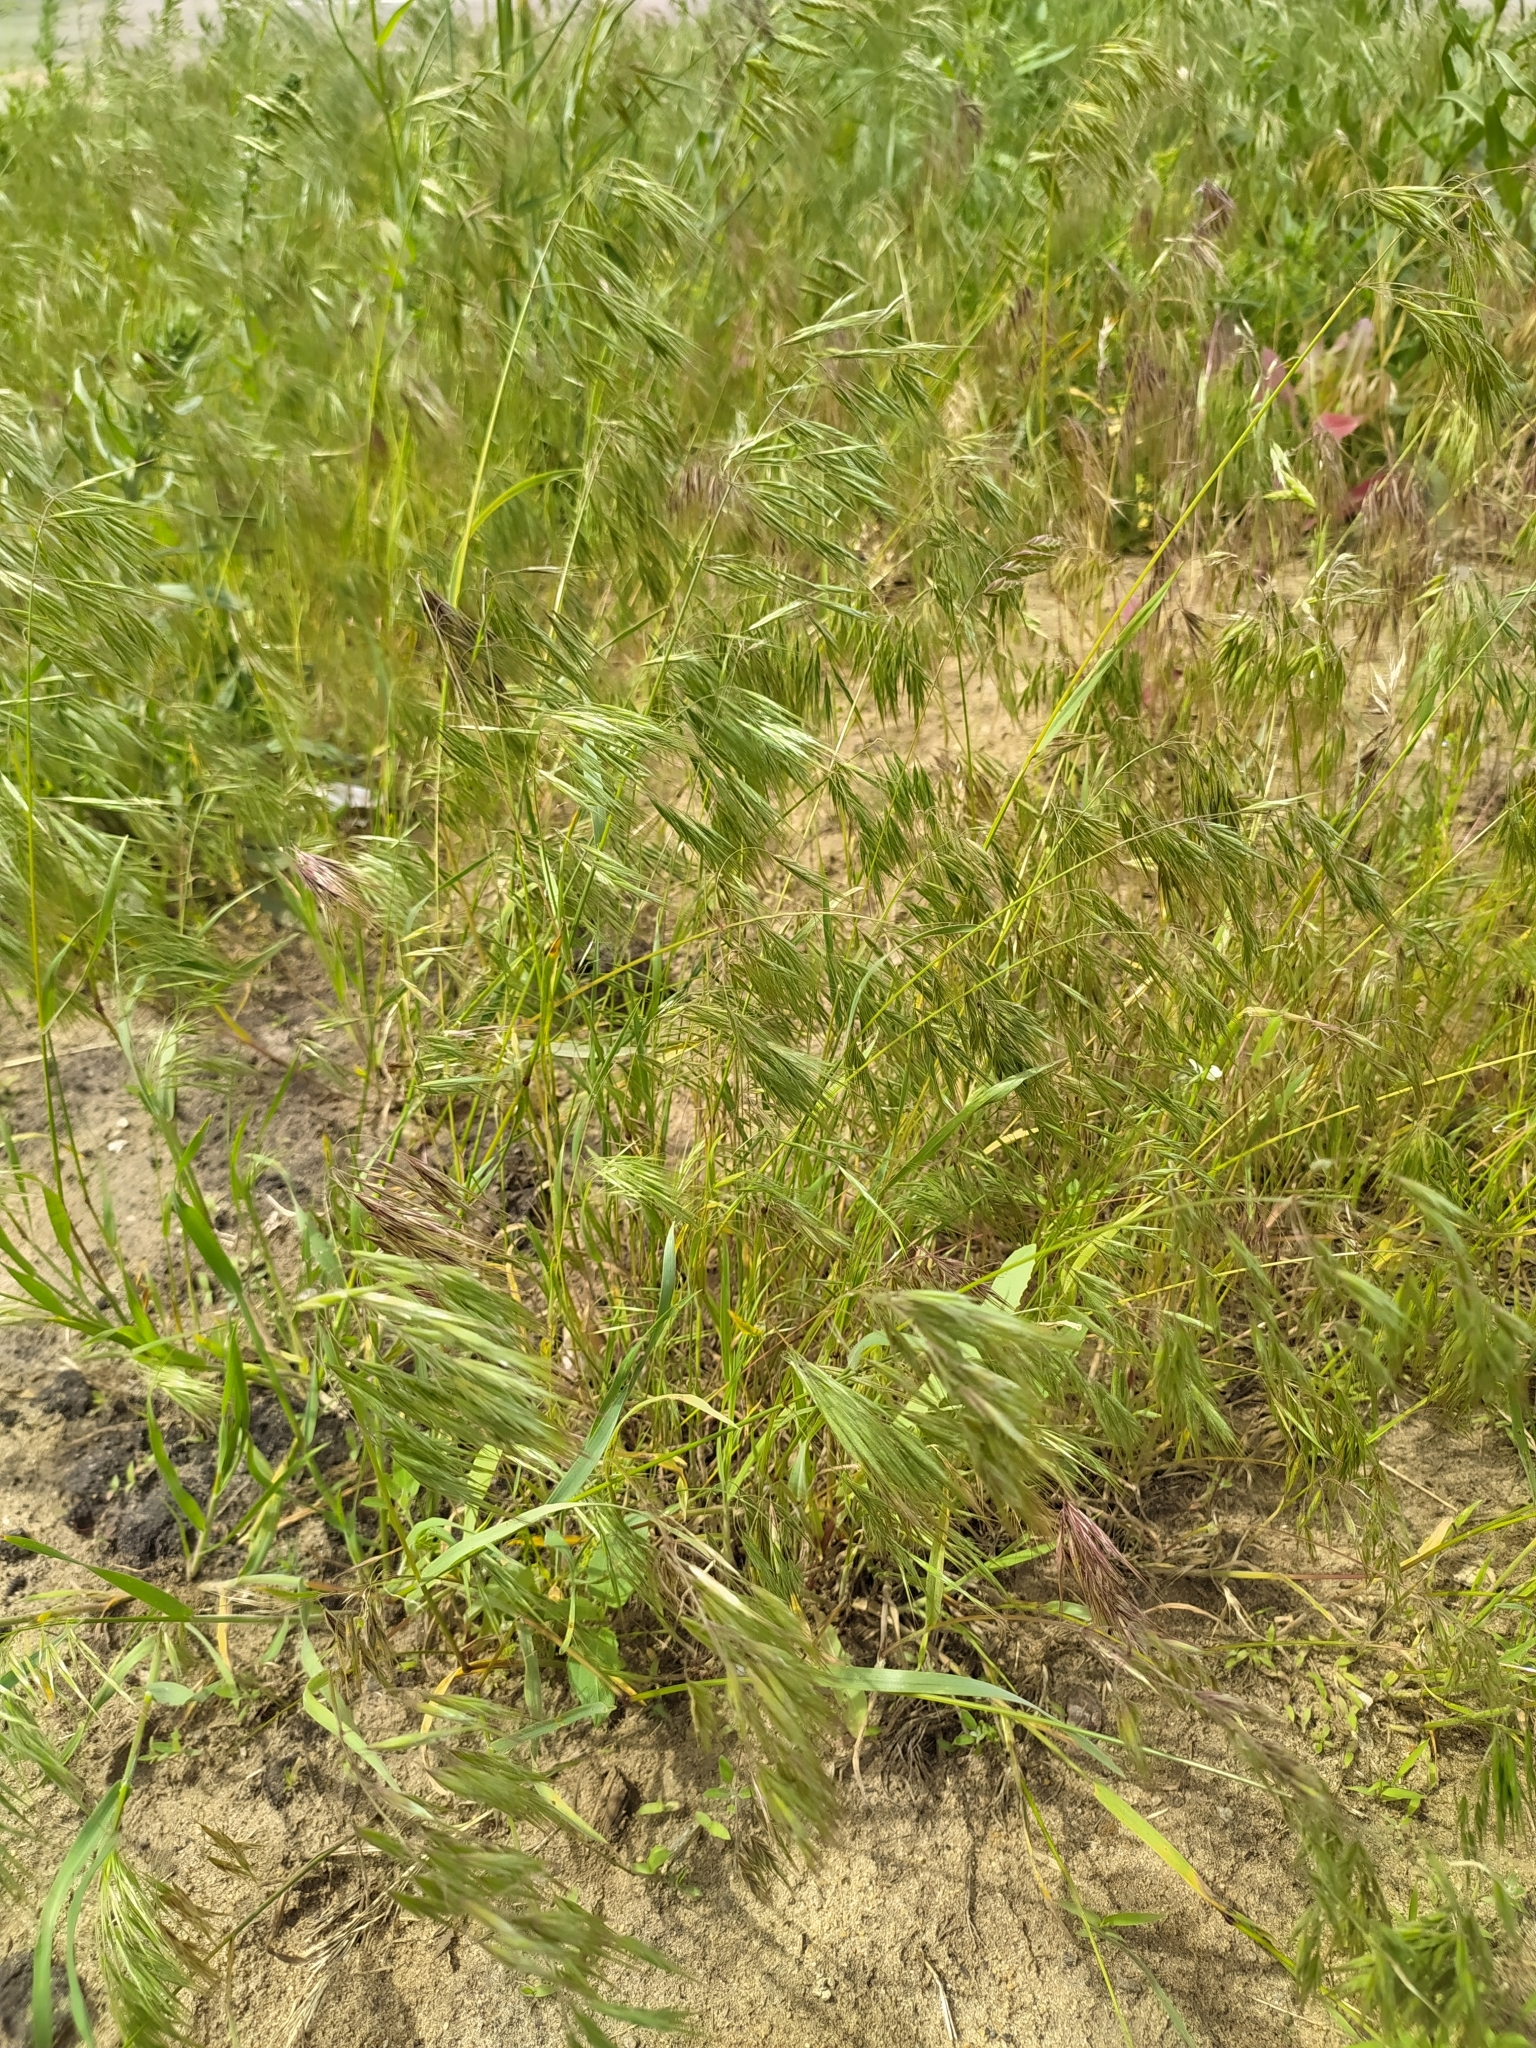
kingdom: Plantae
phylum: Tracheophyta
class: Liliopsida
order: Poales
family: Poaceae
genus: Bromus
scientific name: Bromus tectorum
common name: Cheatgrass
